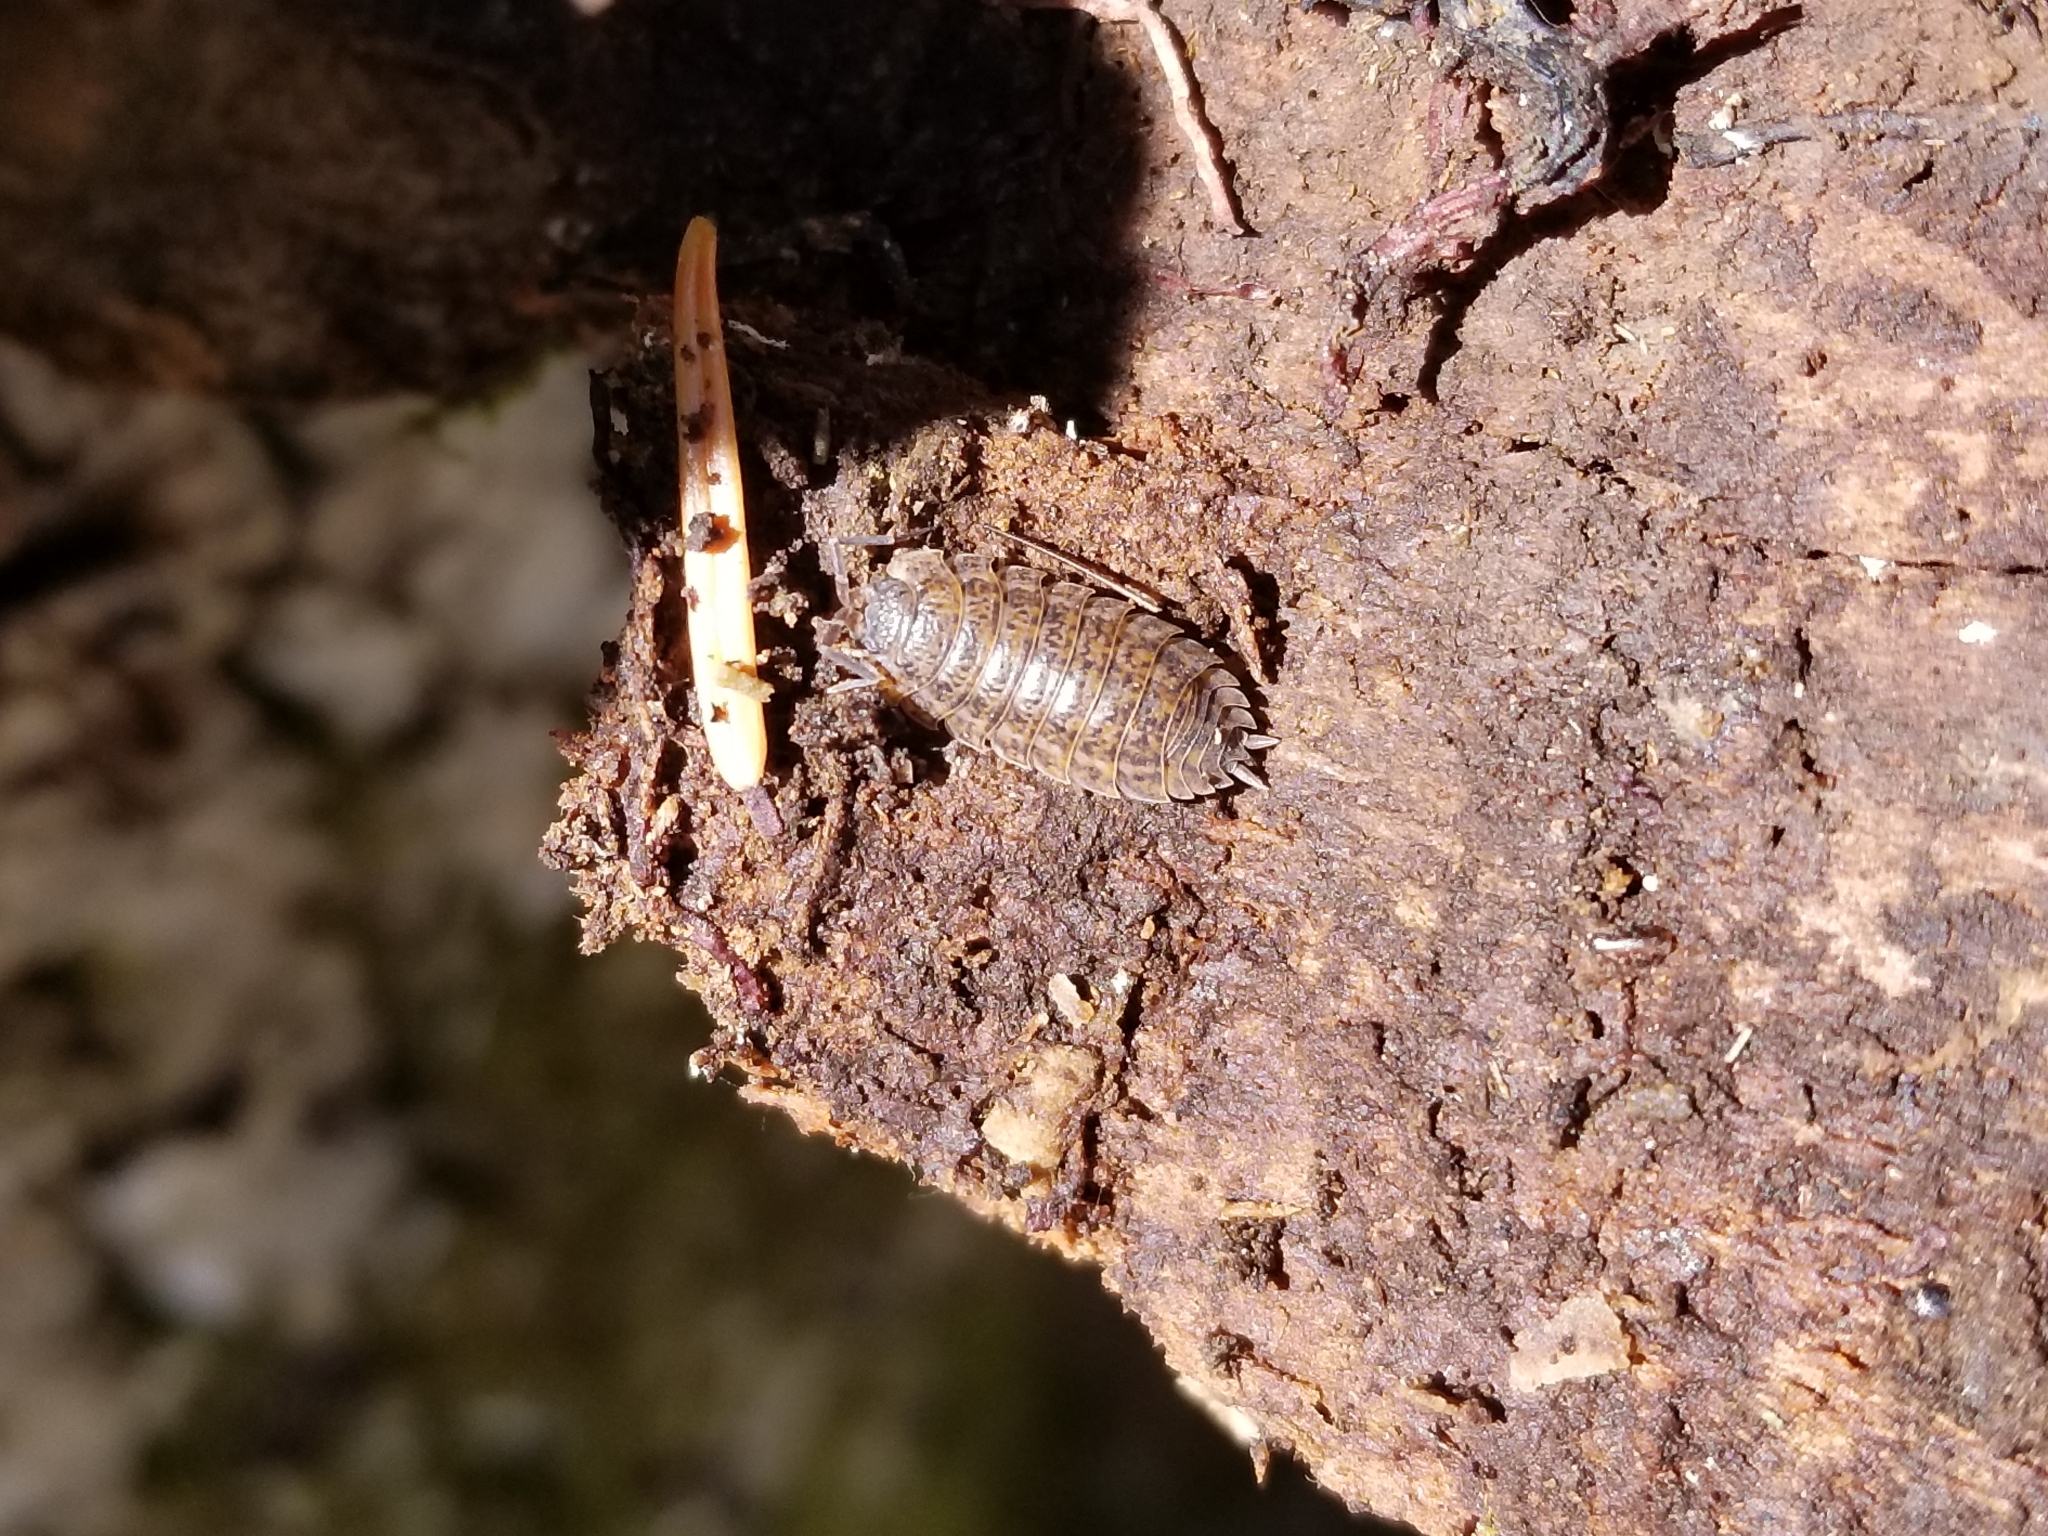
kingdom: Animalia
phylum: Arthropoda
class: Malacostraca
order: Isopoda
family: Trachelipodidae
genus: Trachelipus
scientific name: Trachelipus rathkii
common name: Isopod
